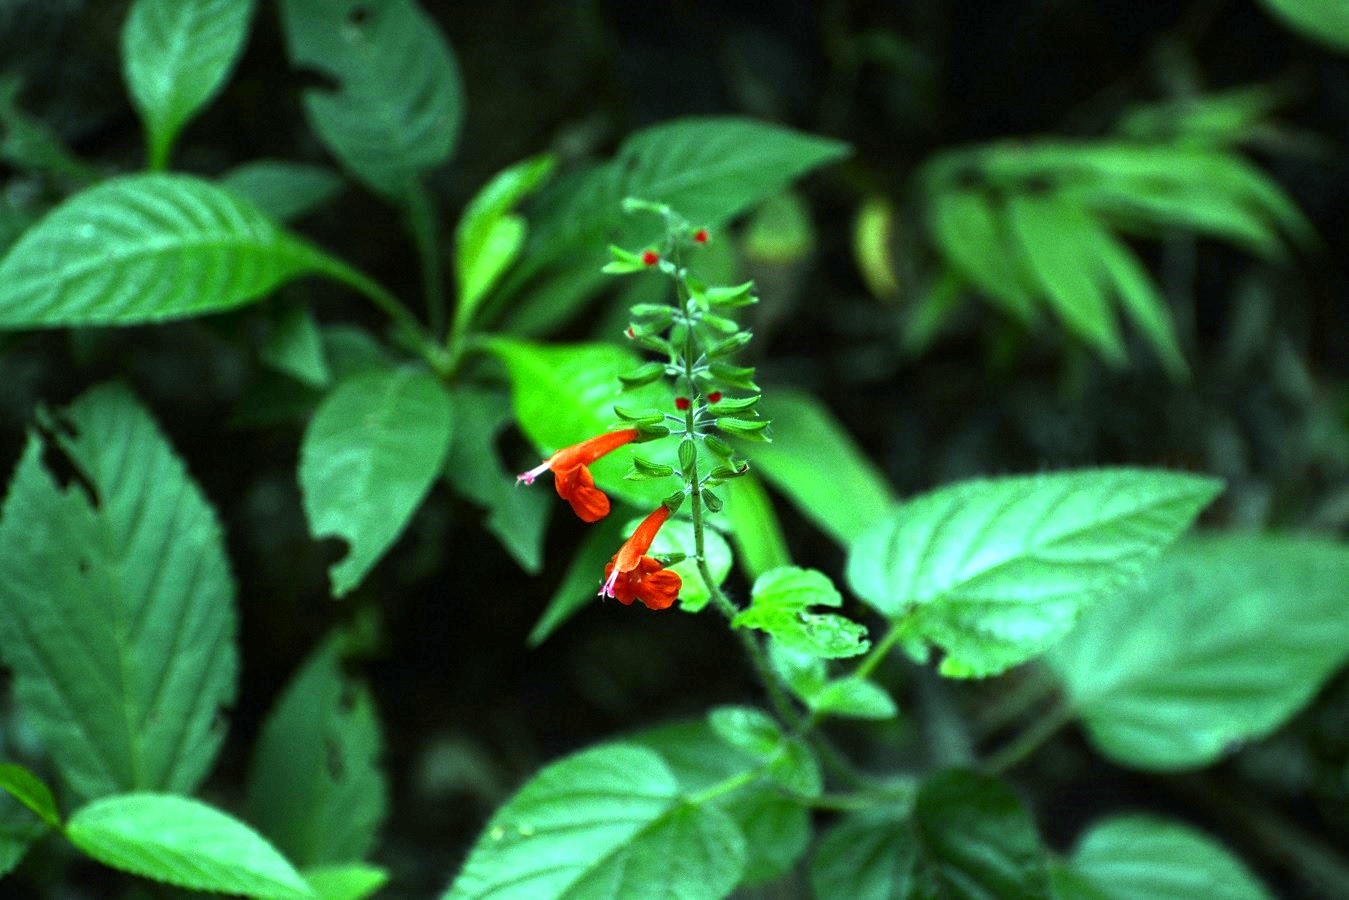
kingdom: Plantae
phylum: Tracheophyta
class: Magnoliopsida
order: Lamiales
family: Lamiaceae
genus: Salvia
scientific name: Salvia coccinea
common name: Blood sage
